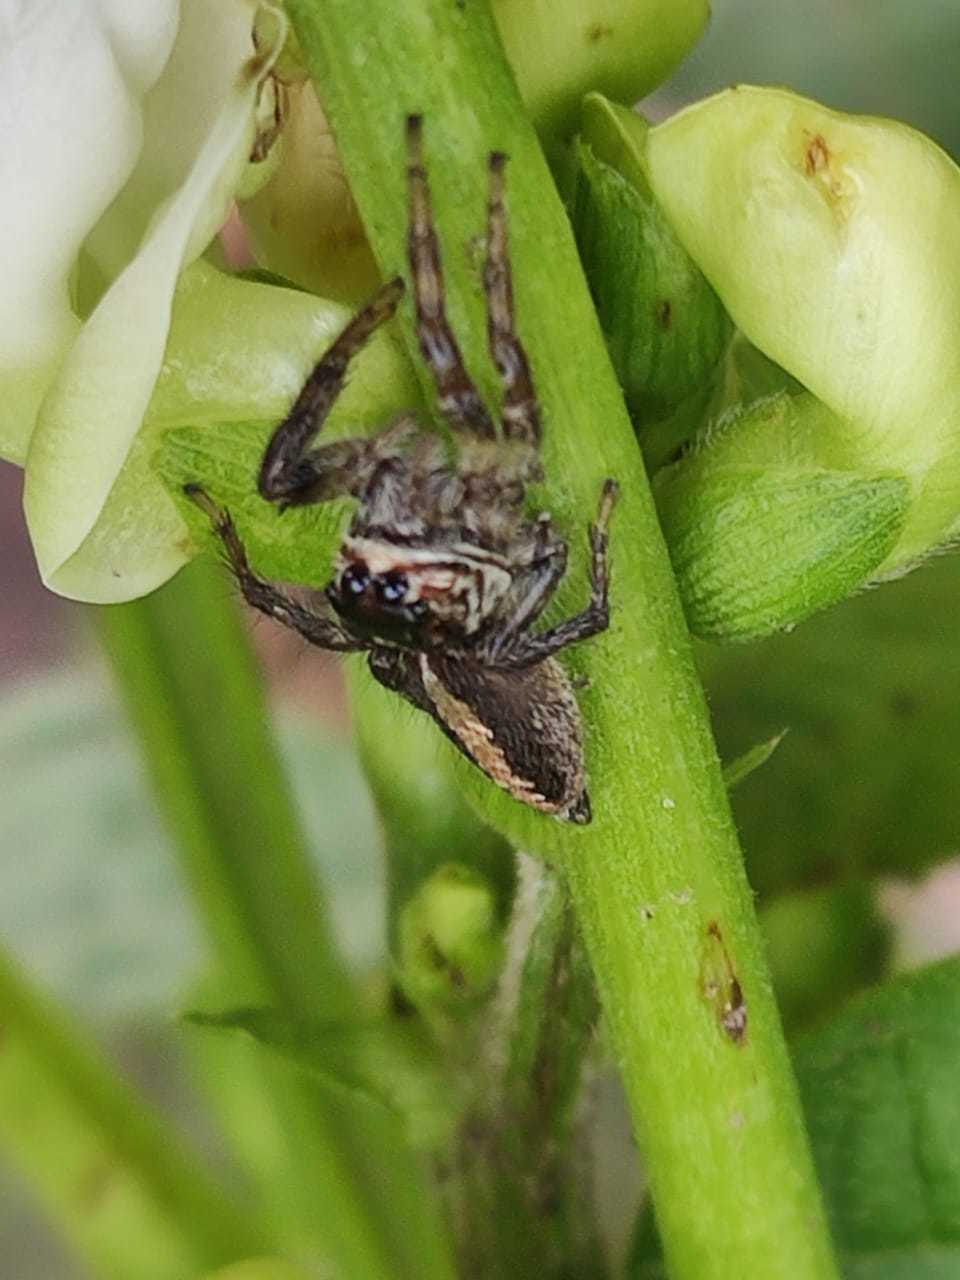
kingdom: Animalia
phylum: Arthropoda
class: Arachnida
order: Araneae
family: Salticidae
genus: Frigga
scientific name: Frigga crocuta
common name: Jumping spiders
